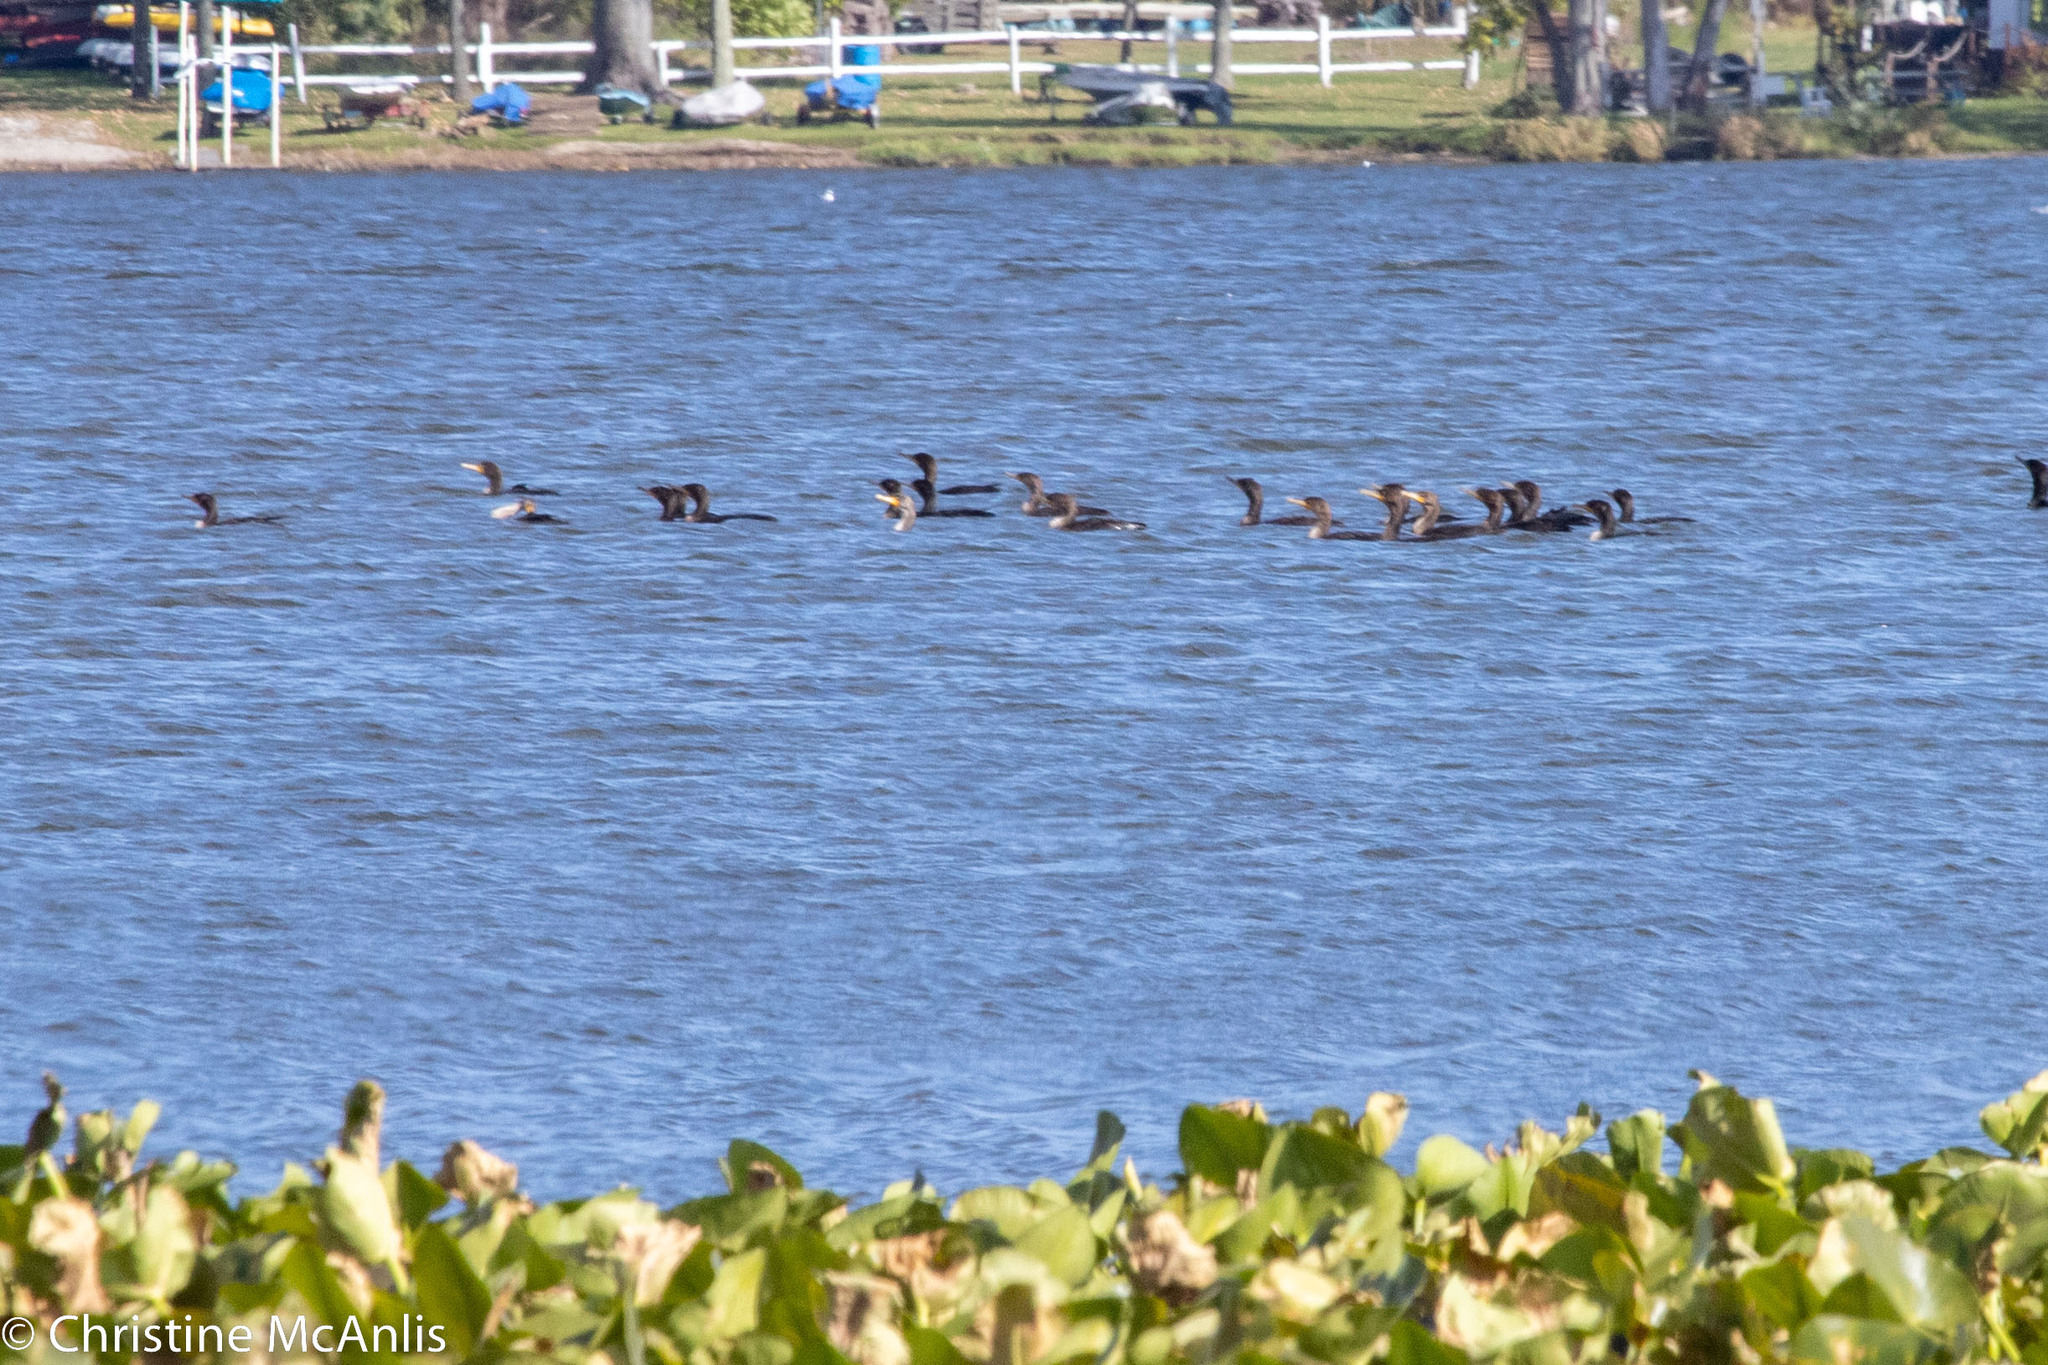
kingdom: Animalia
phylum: Chordata
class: Aves
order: Suliformes
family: Phalacrocoracidae
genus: Phalacrocorax
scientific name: Phalacrocorax auritus
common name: Double-crested cormorant
